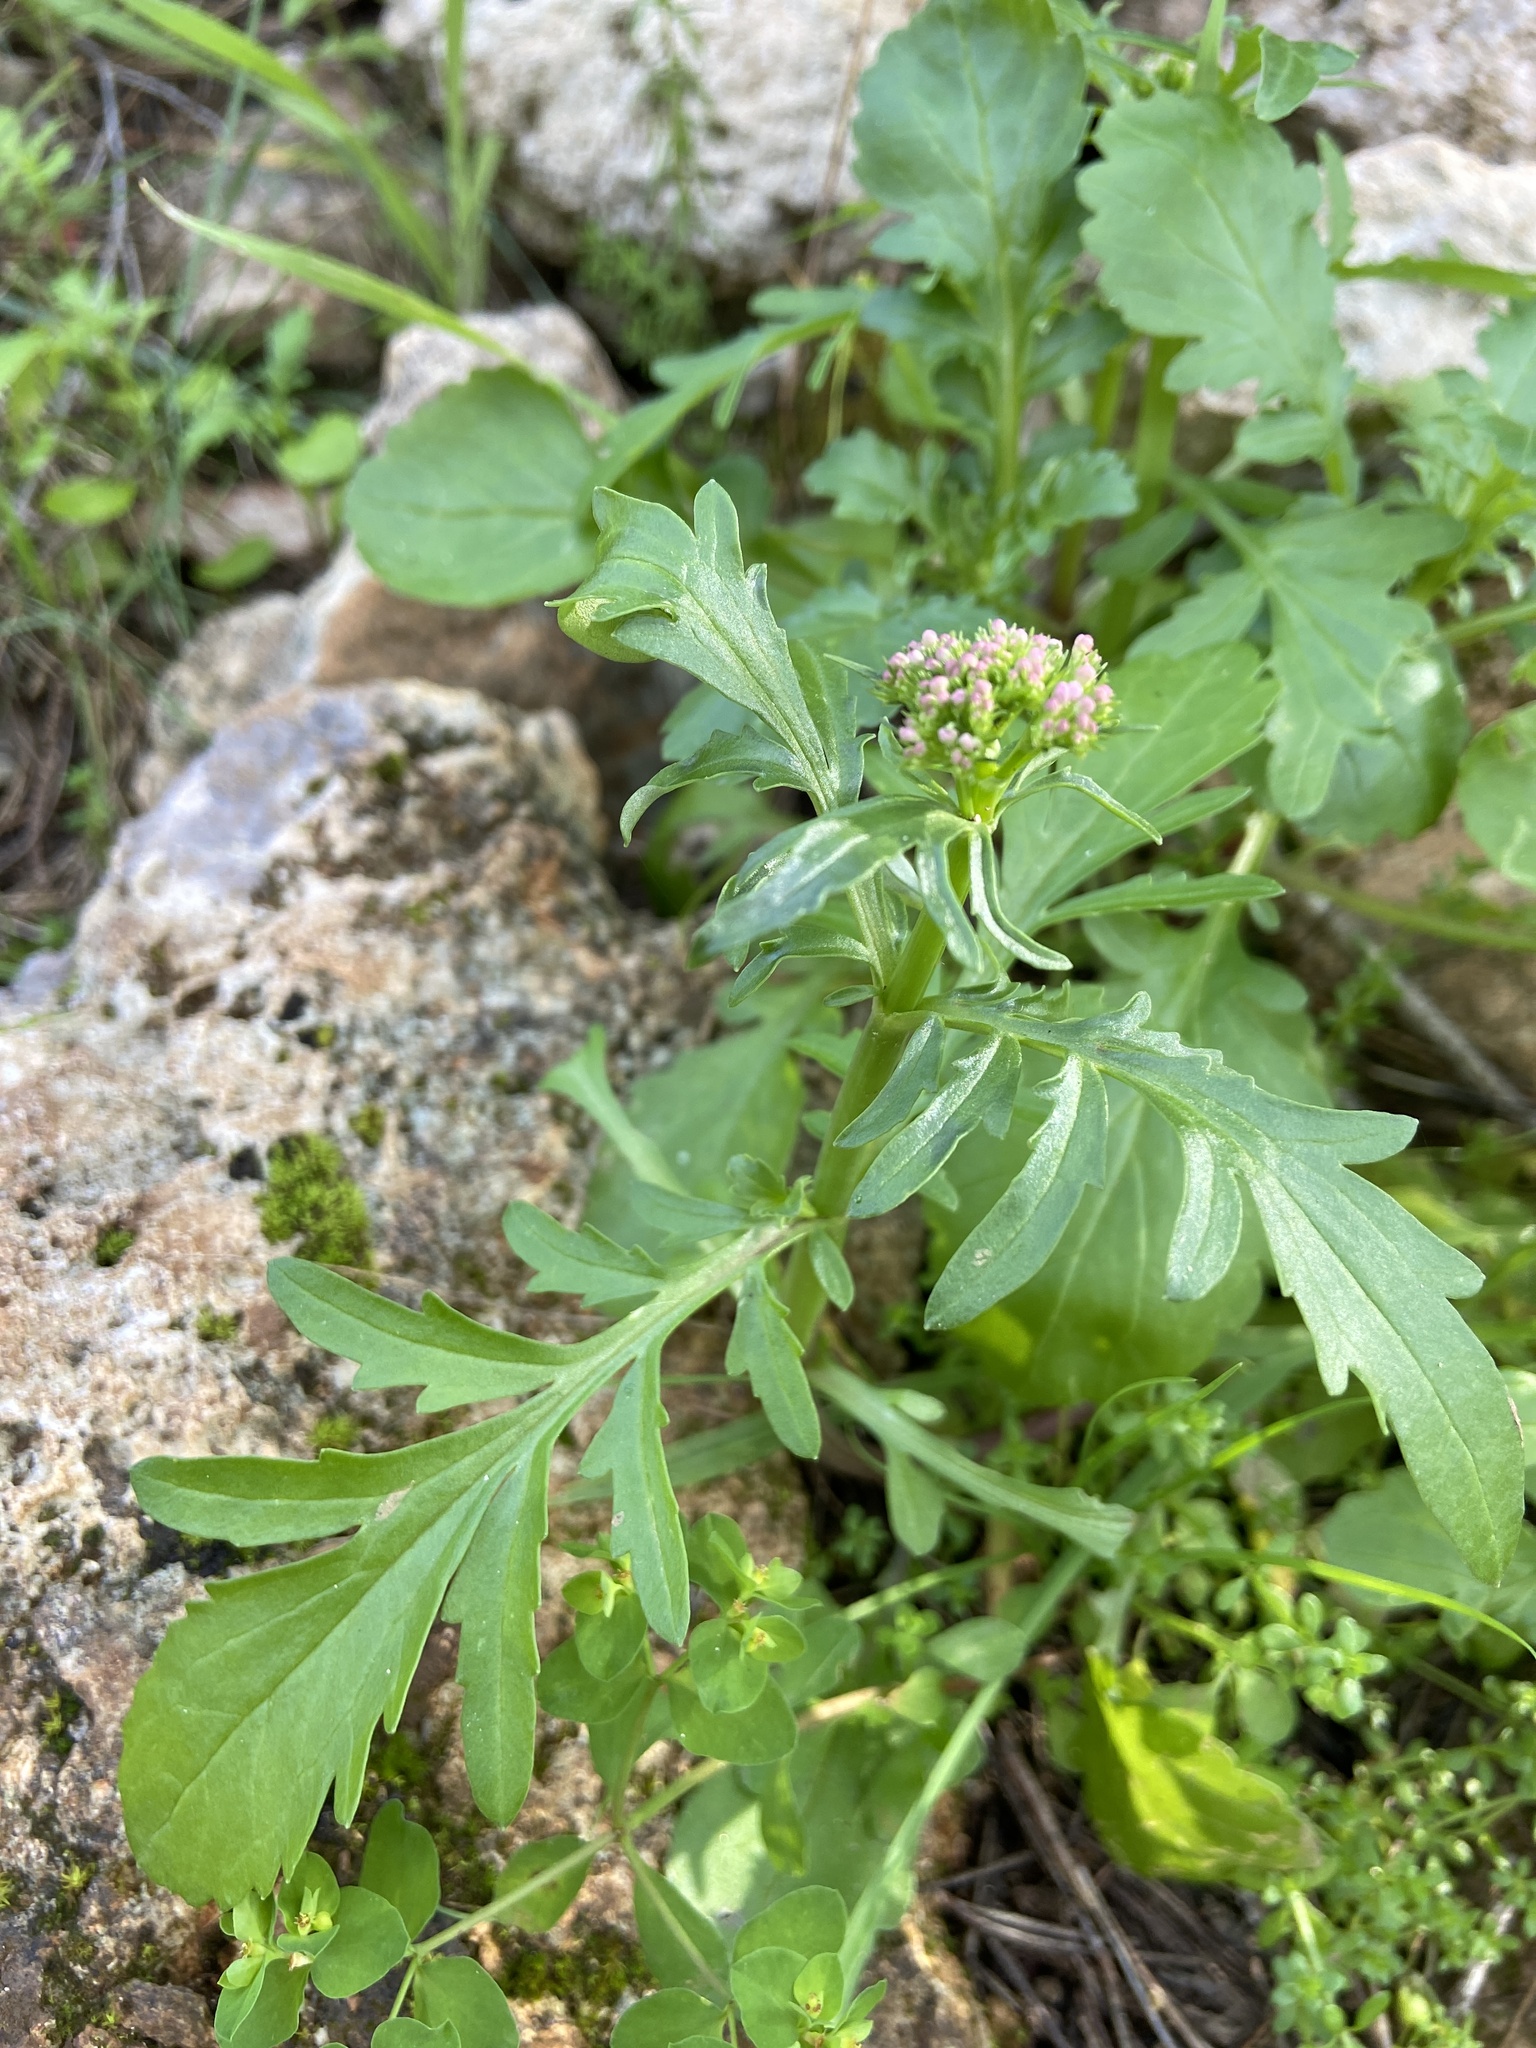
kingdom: Plantae
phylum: Tracheophyta
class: Magnoliopsida
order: Dipsacales
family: Caprifoliaceae
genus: Centranthus
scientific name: Centranthus calcitrapae
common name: Annual valerian
